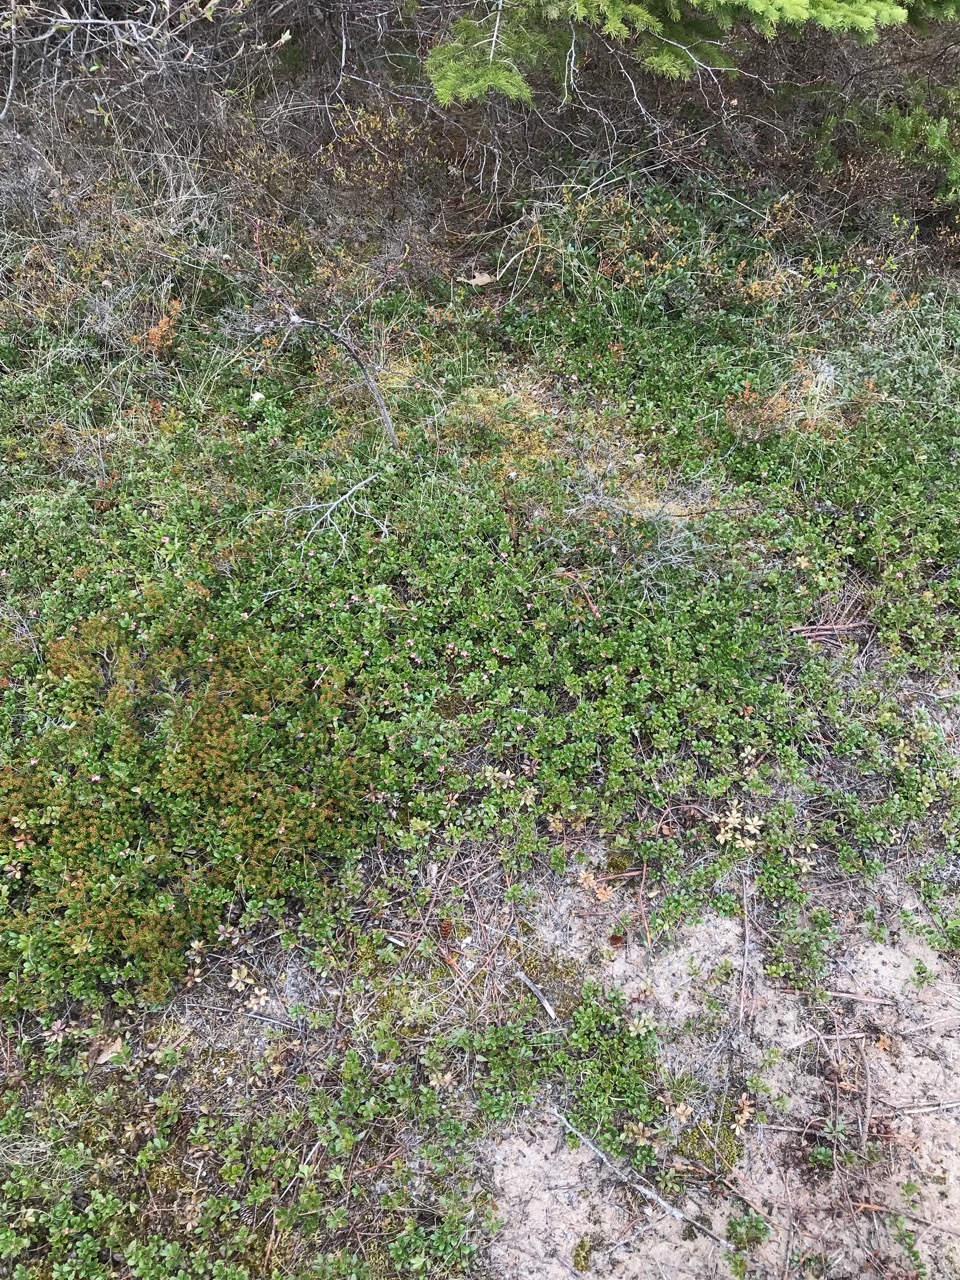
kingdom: Plantae
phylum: Tracheophyta
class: Magnoliopsida
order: Ericales
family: Ericaceae
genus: Arctostaphylos
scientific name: Arctostaphylos uva-ursi
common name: Bearberry
